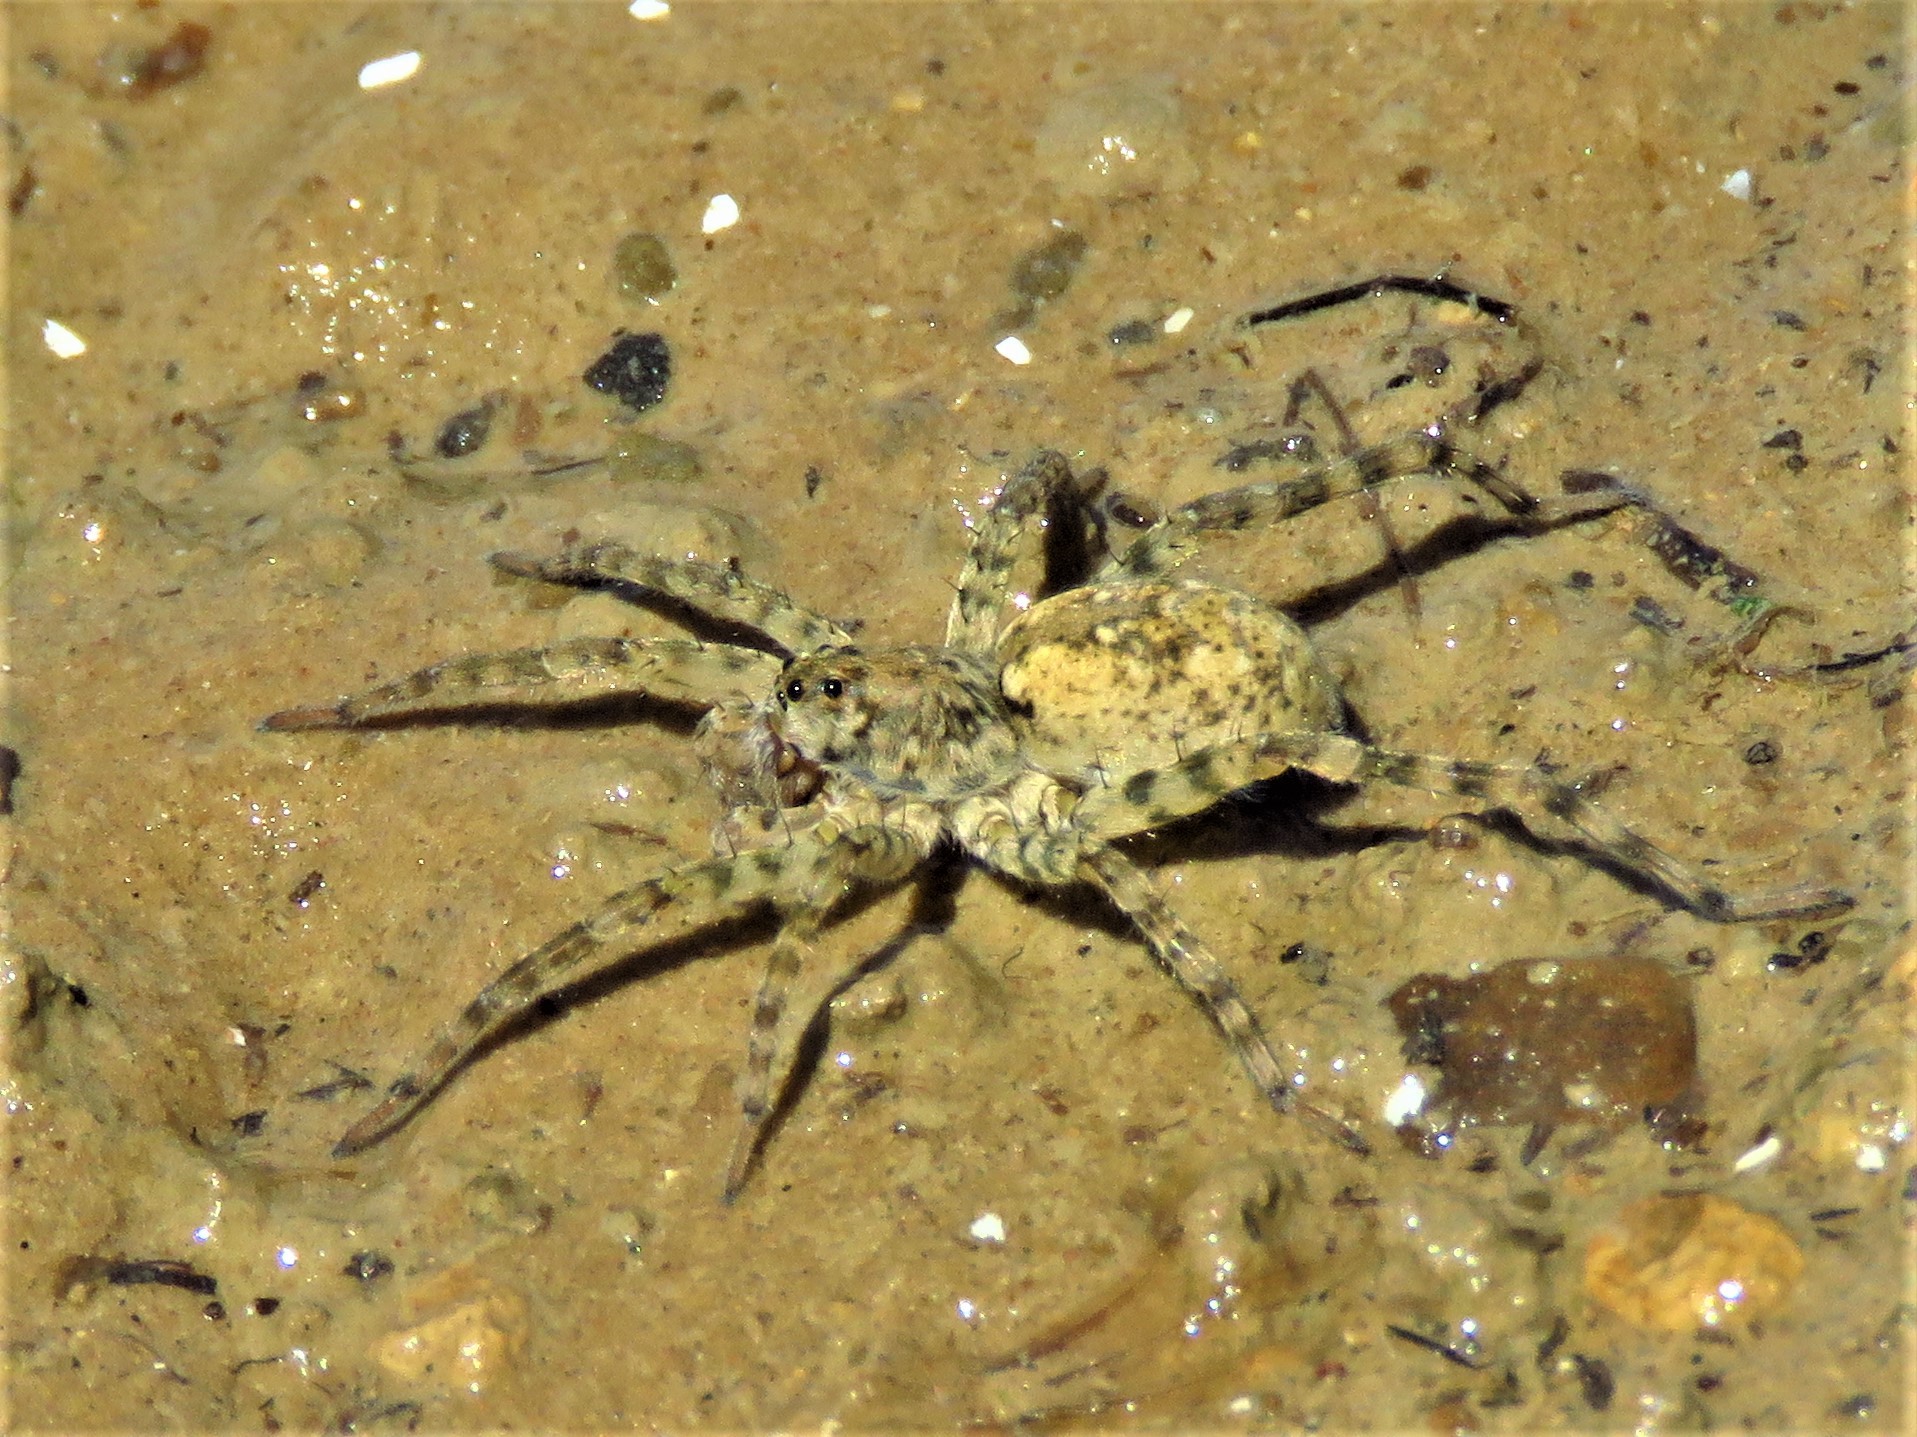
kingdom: Animalia
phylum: Arthropoda
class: Arachnida
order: Araneae
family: Lycosidae
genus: Arctosa
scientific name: Arctosa littoralis
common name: Wolf spiders
